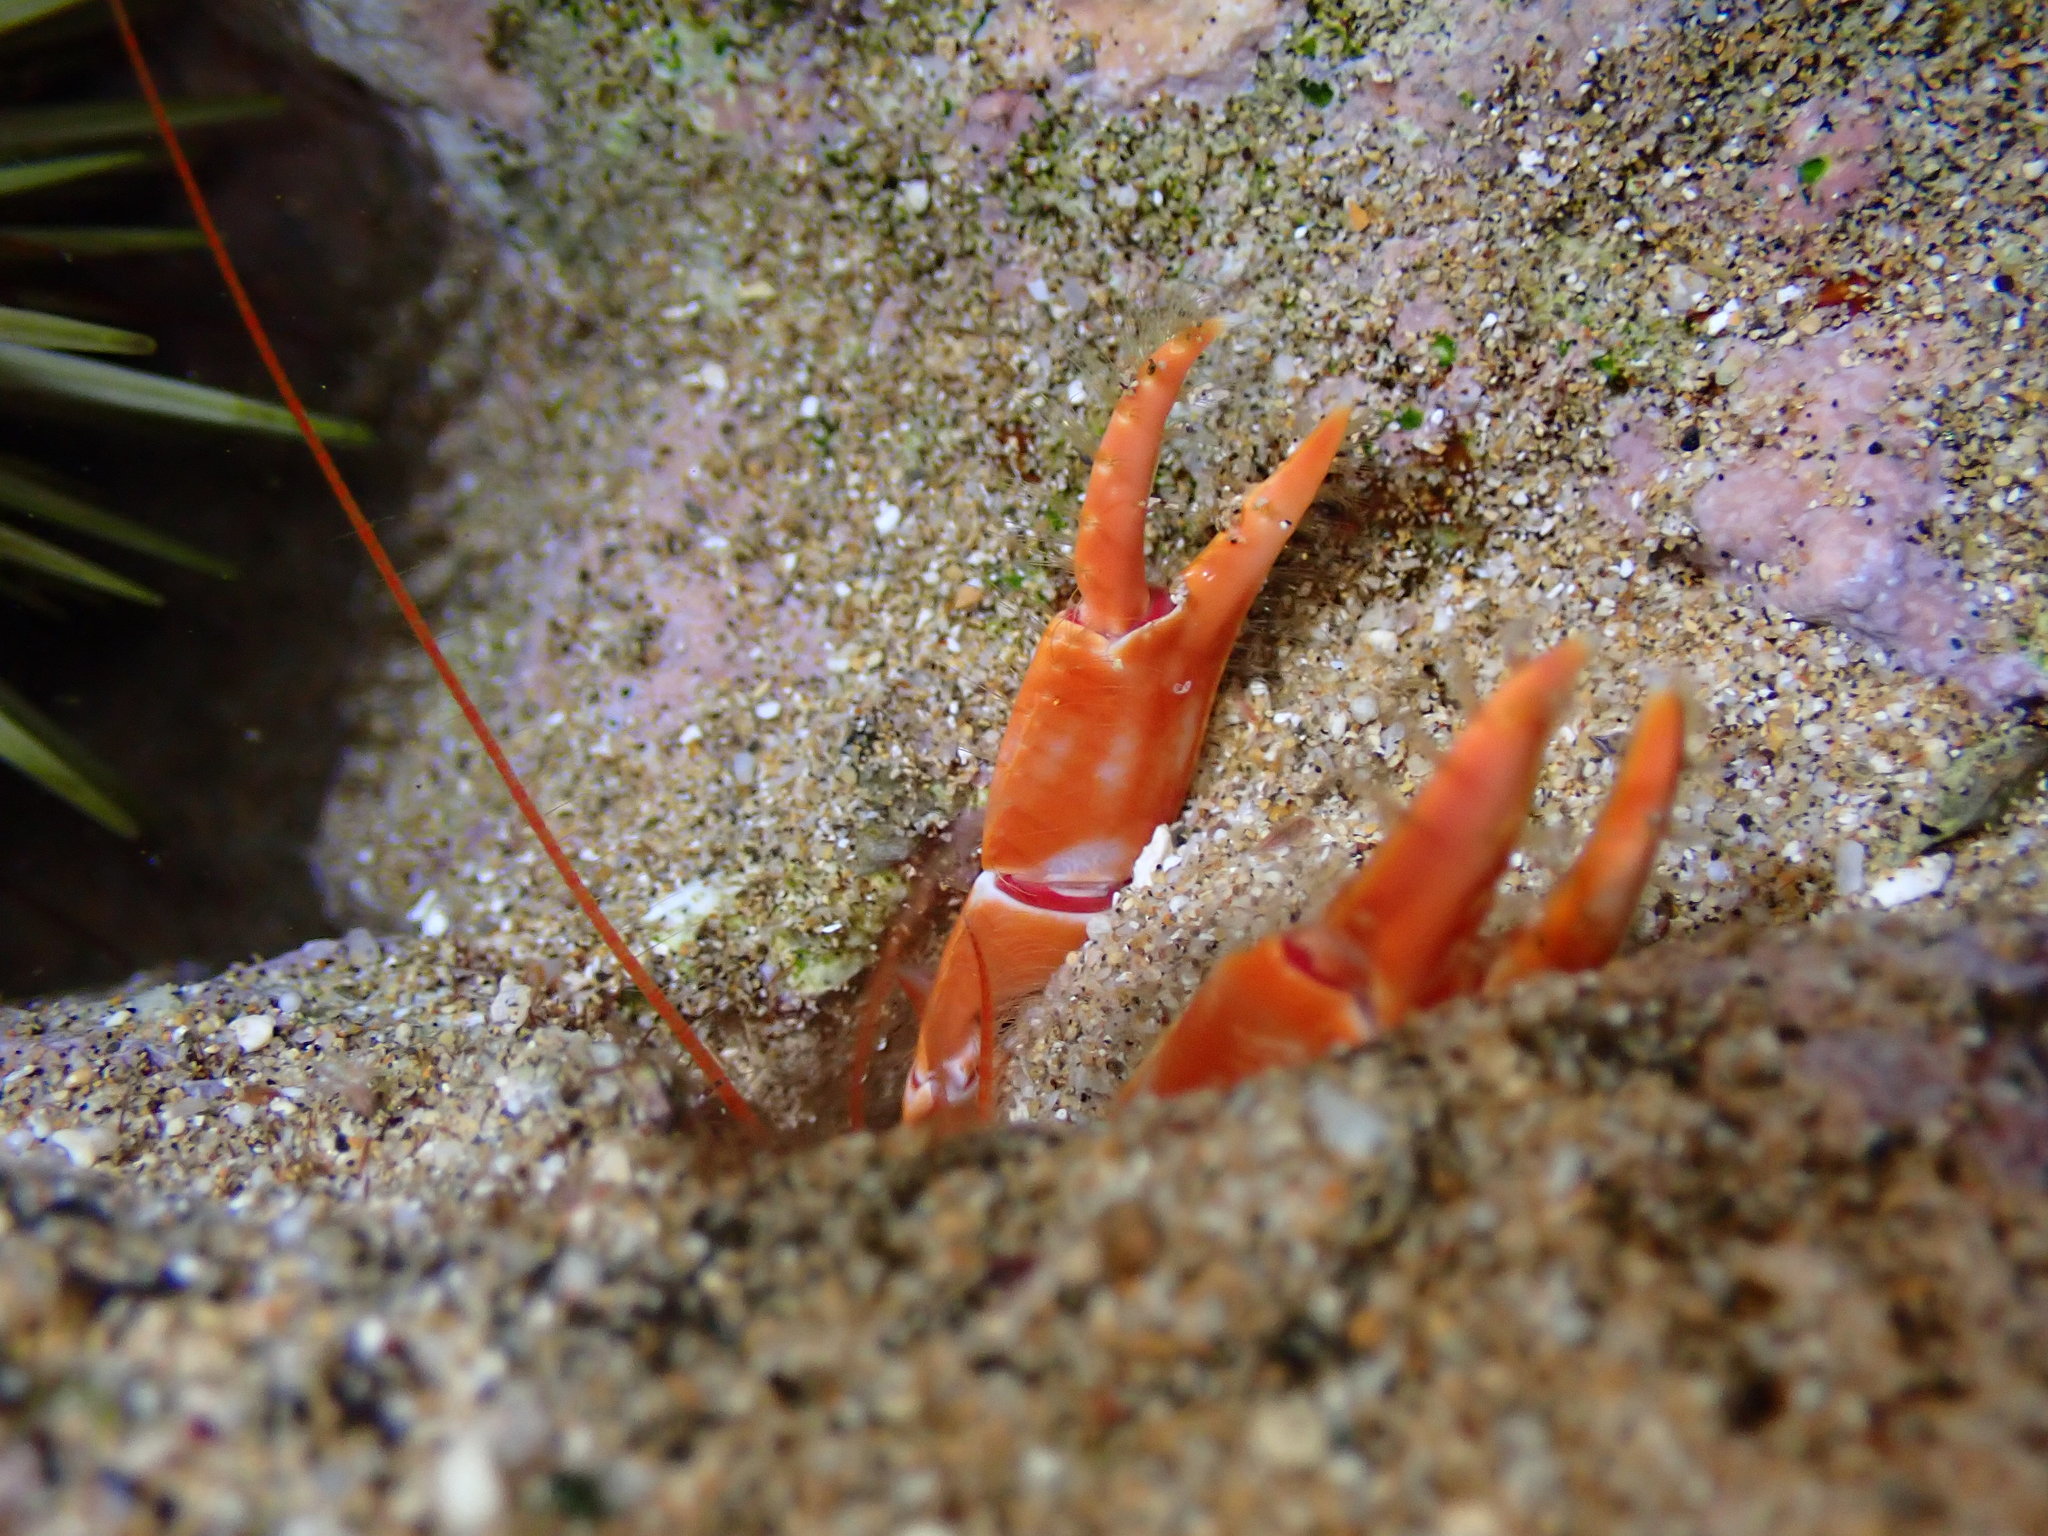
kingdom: Animalia
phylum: Arthropoda
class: Malacostraca
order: Decapoda
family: Callichiridae
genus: Corallianassa
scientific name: Corallianassa borradailei
